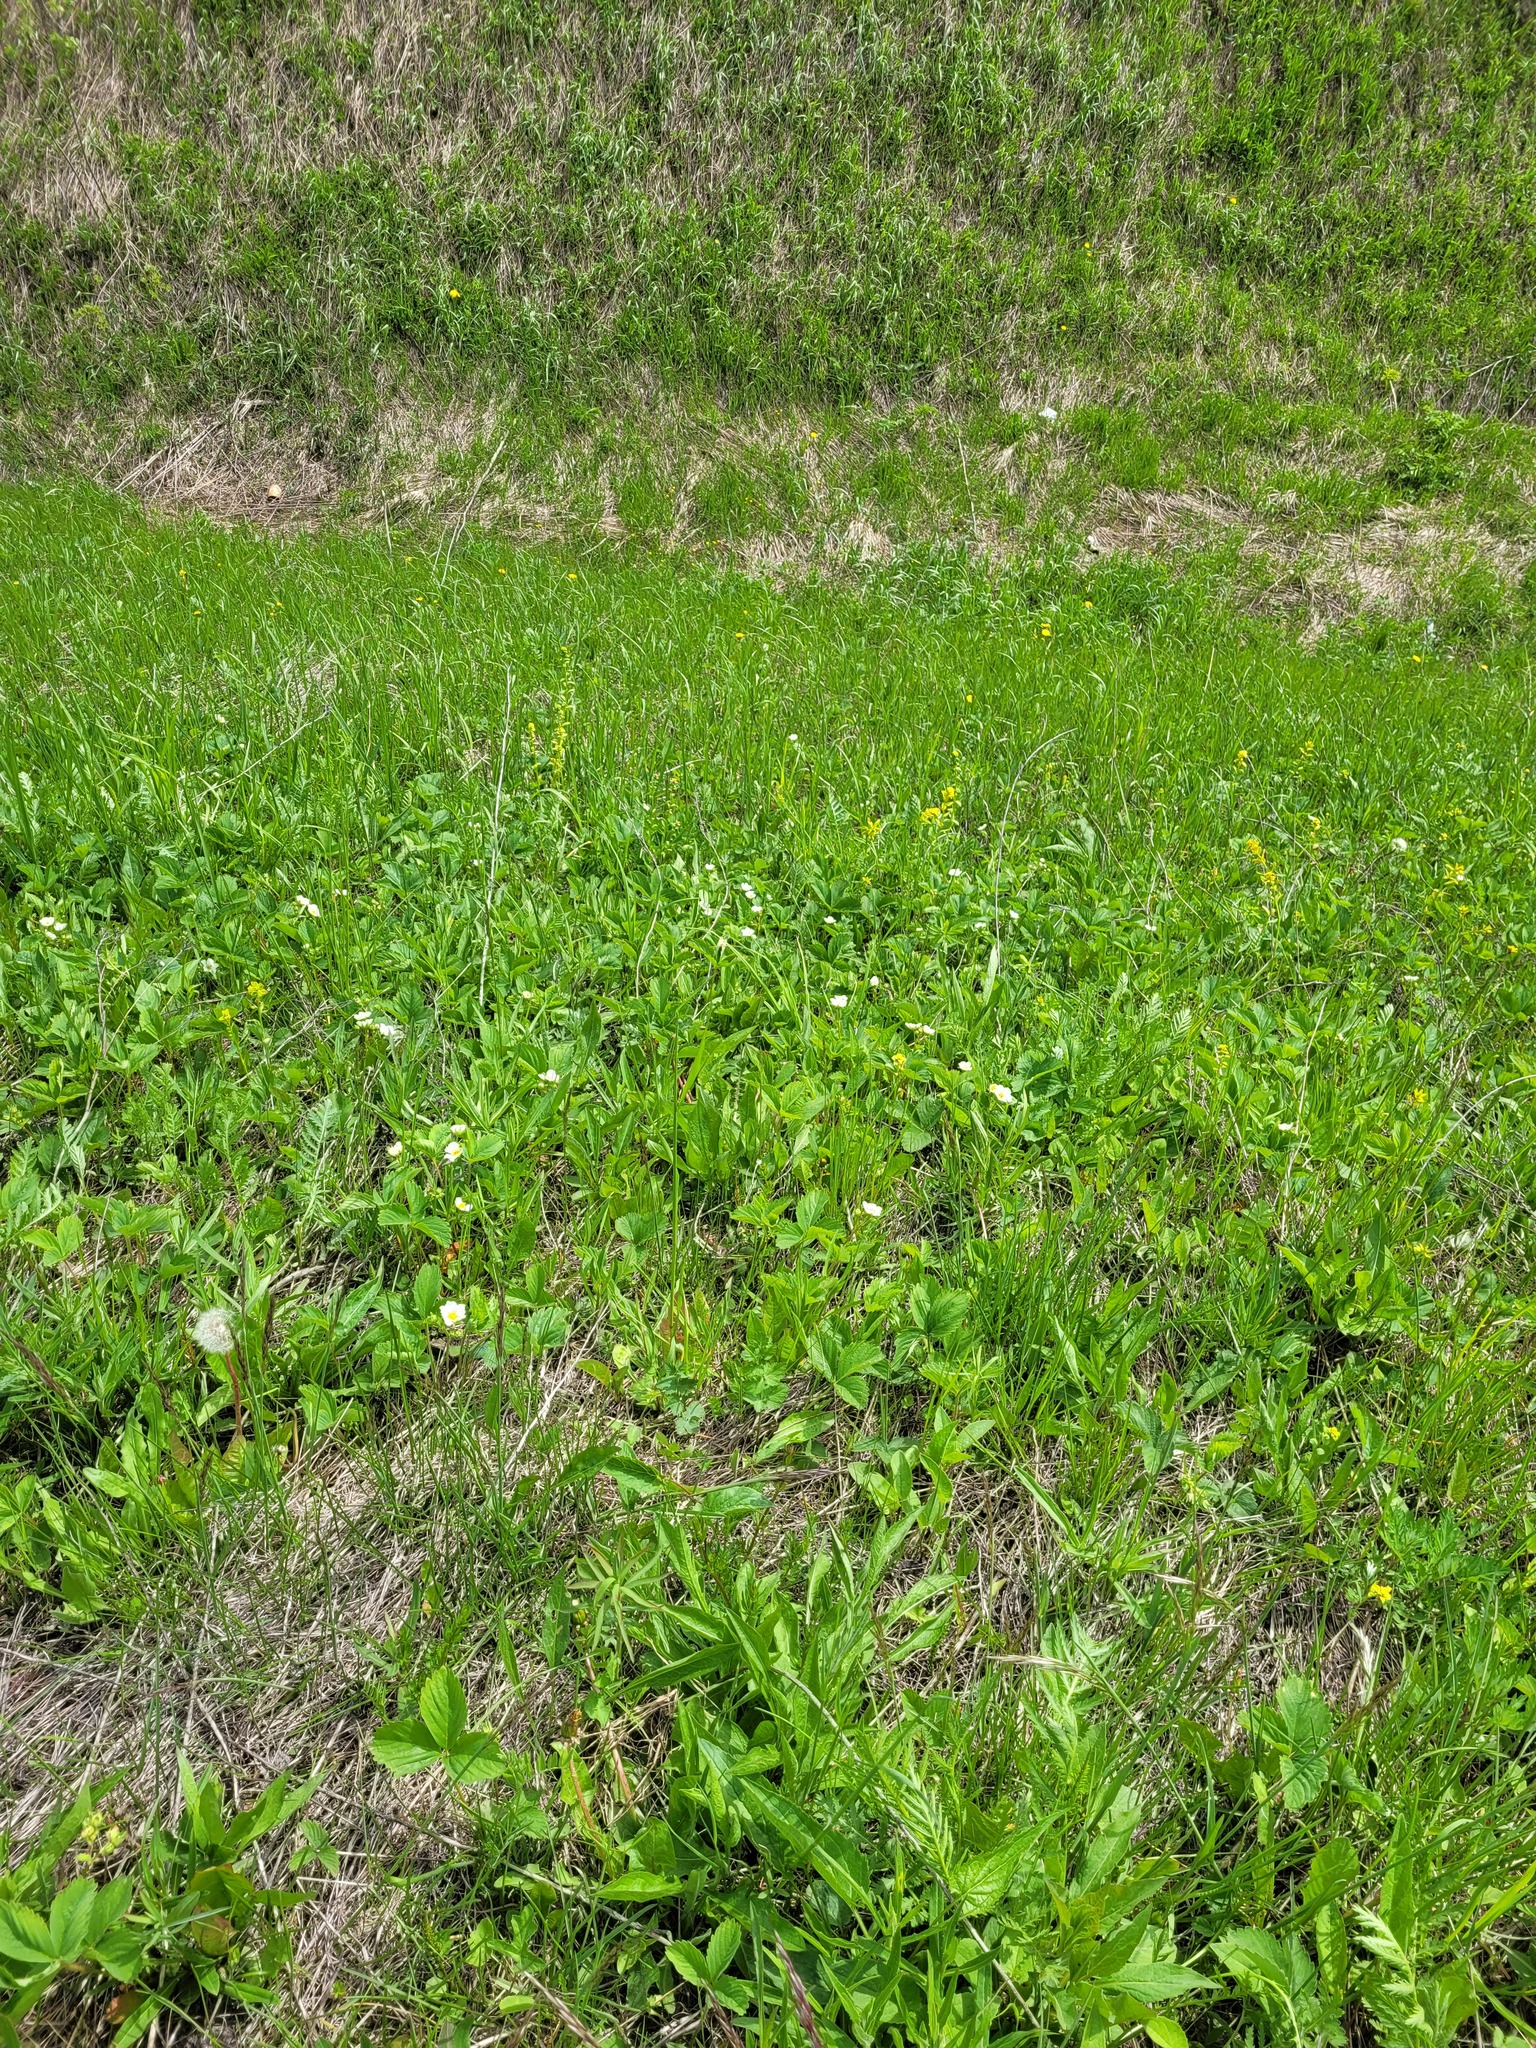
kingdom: Plantae
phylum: Tracheophyta
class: Magnoliopsida
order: Rosales
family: Rosaceae
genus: Fragaria
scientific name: Fragaria ananassa
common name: Garden strawberry
